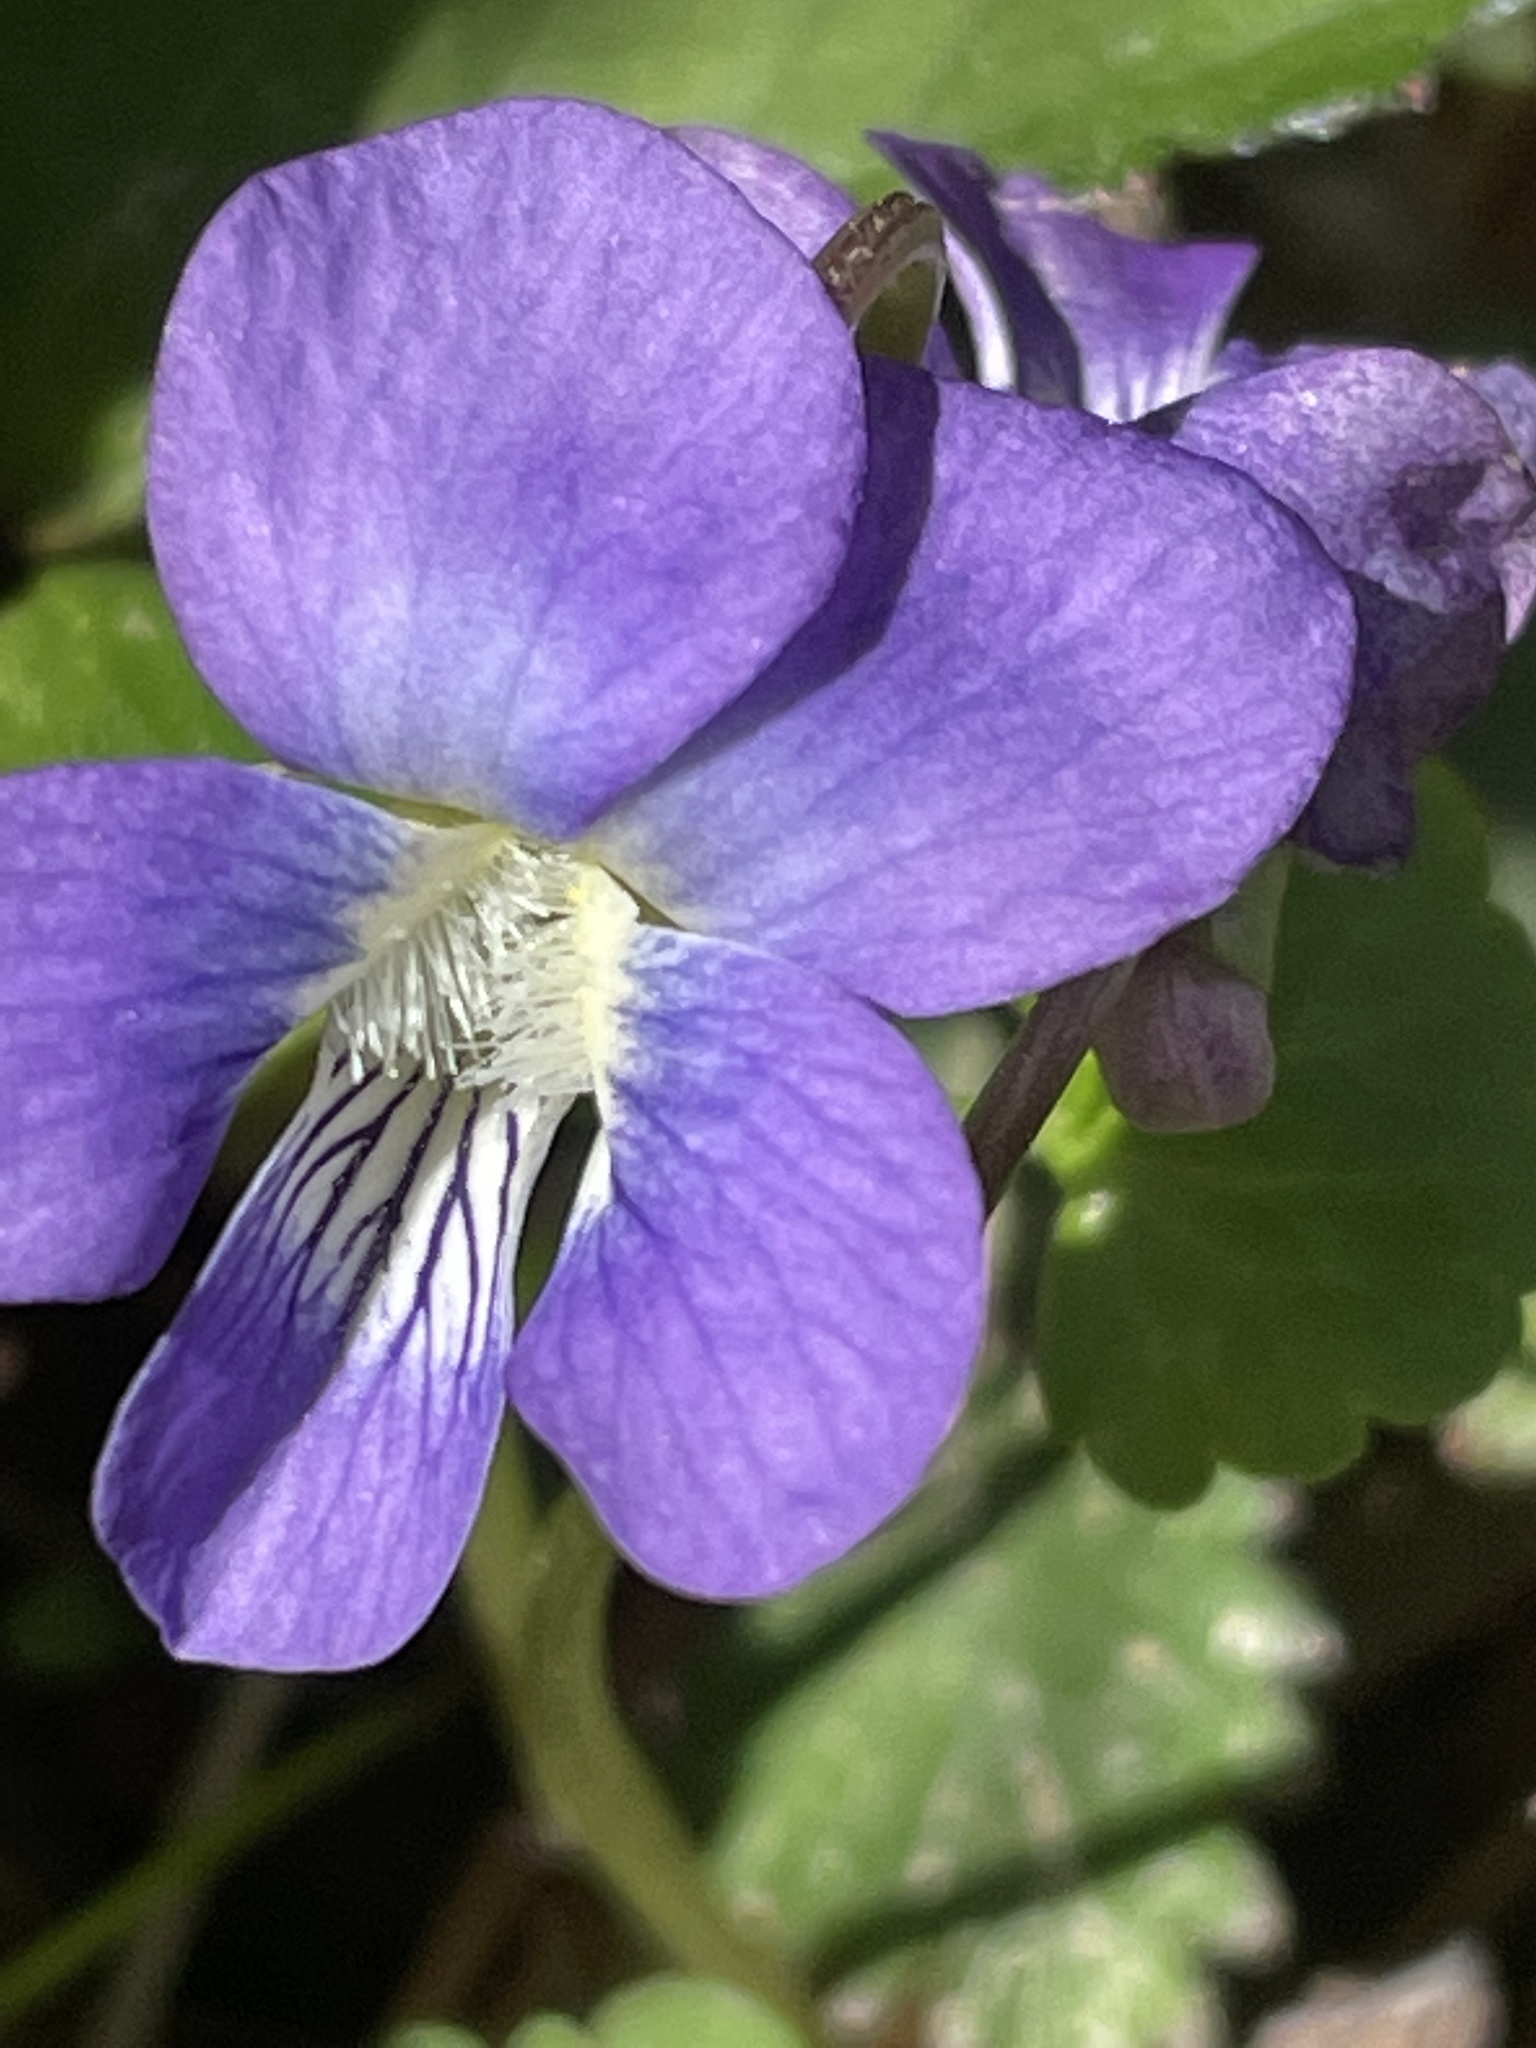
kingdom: Plantae
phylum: Tracheophyta
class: Magnoliopsida
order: Malpighiales
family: Violaceae
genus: Viola
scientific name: Viola sororia
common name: Dooryard violet
